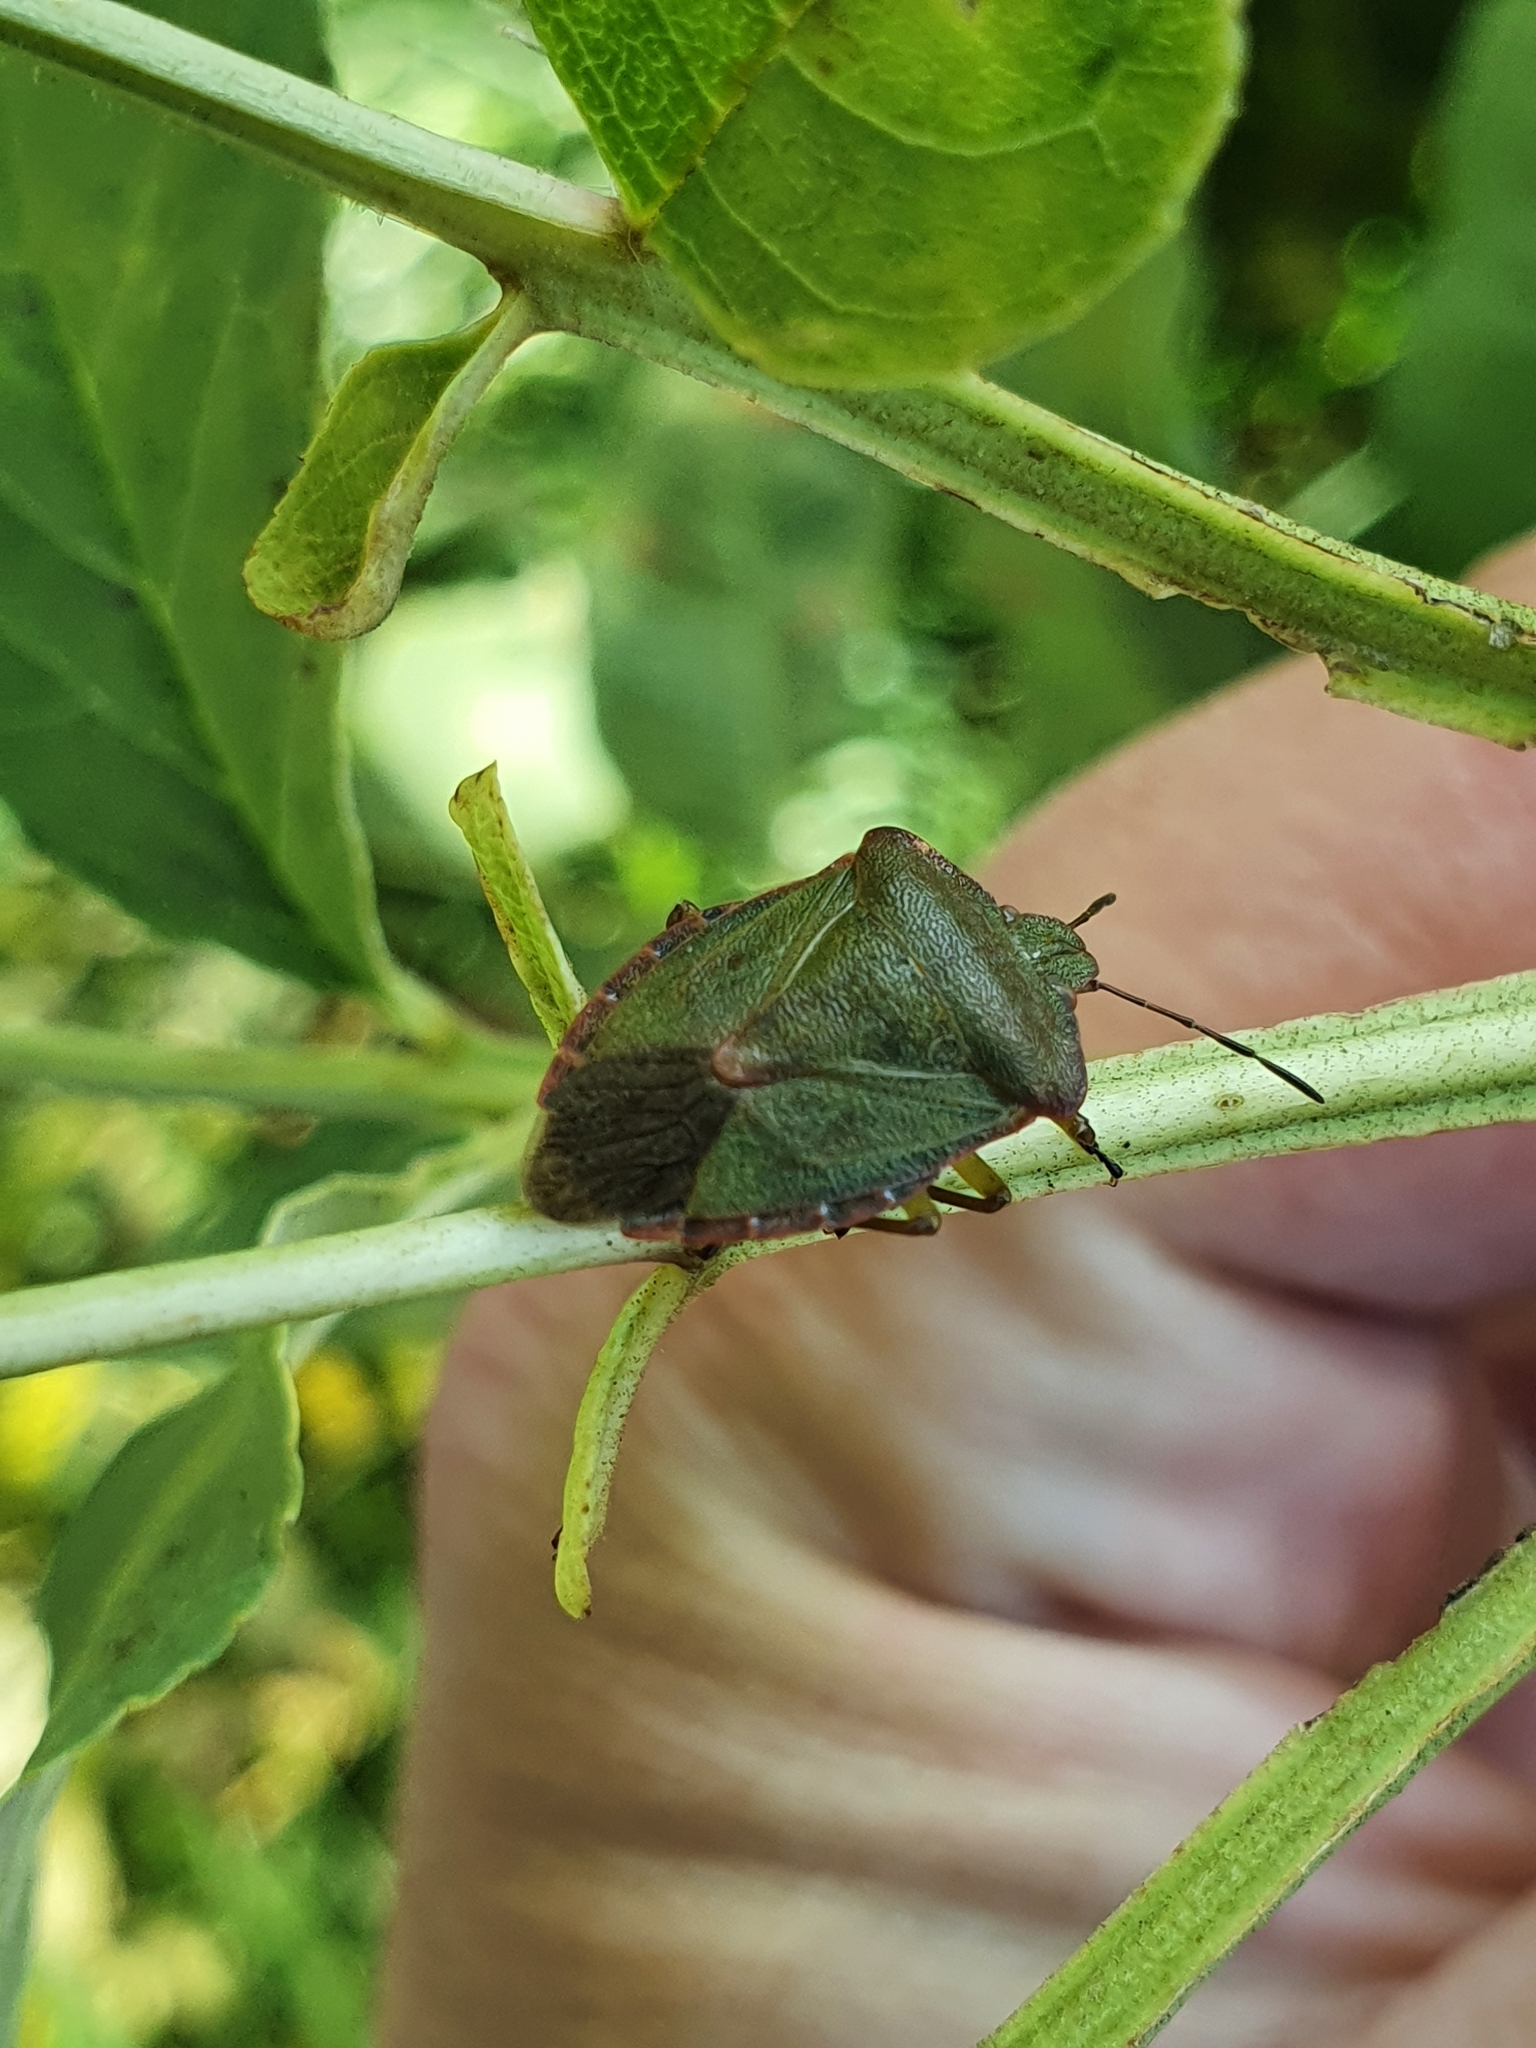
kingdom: Animalia
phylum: Arthropoda
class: Insecta
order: Hemiptera
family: Pentatomidae
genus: Palomena
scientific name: Palomena prasina
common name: Green shieldbug
